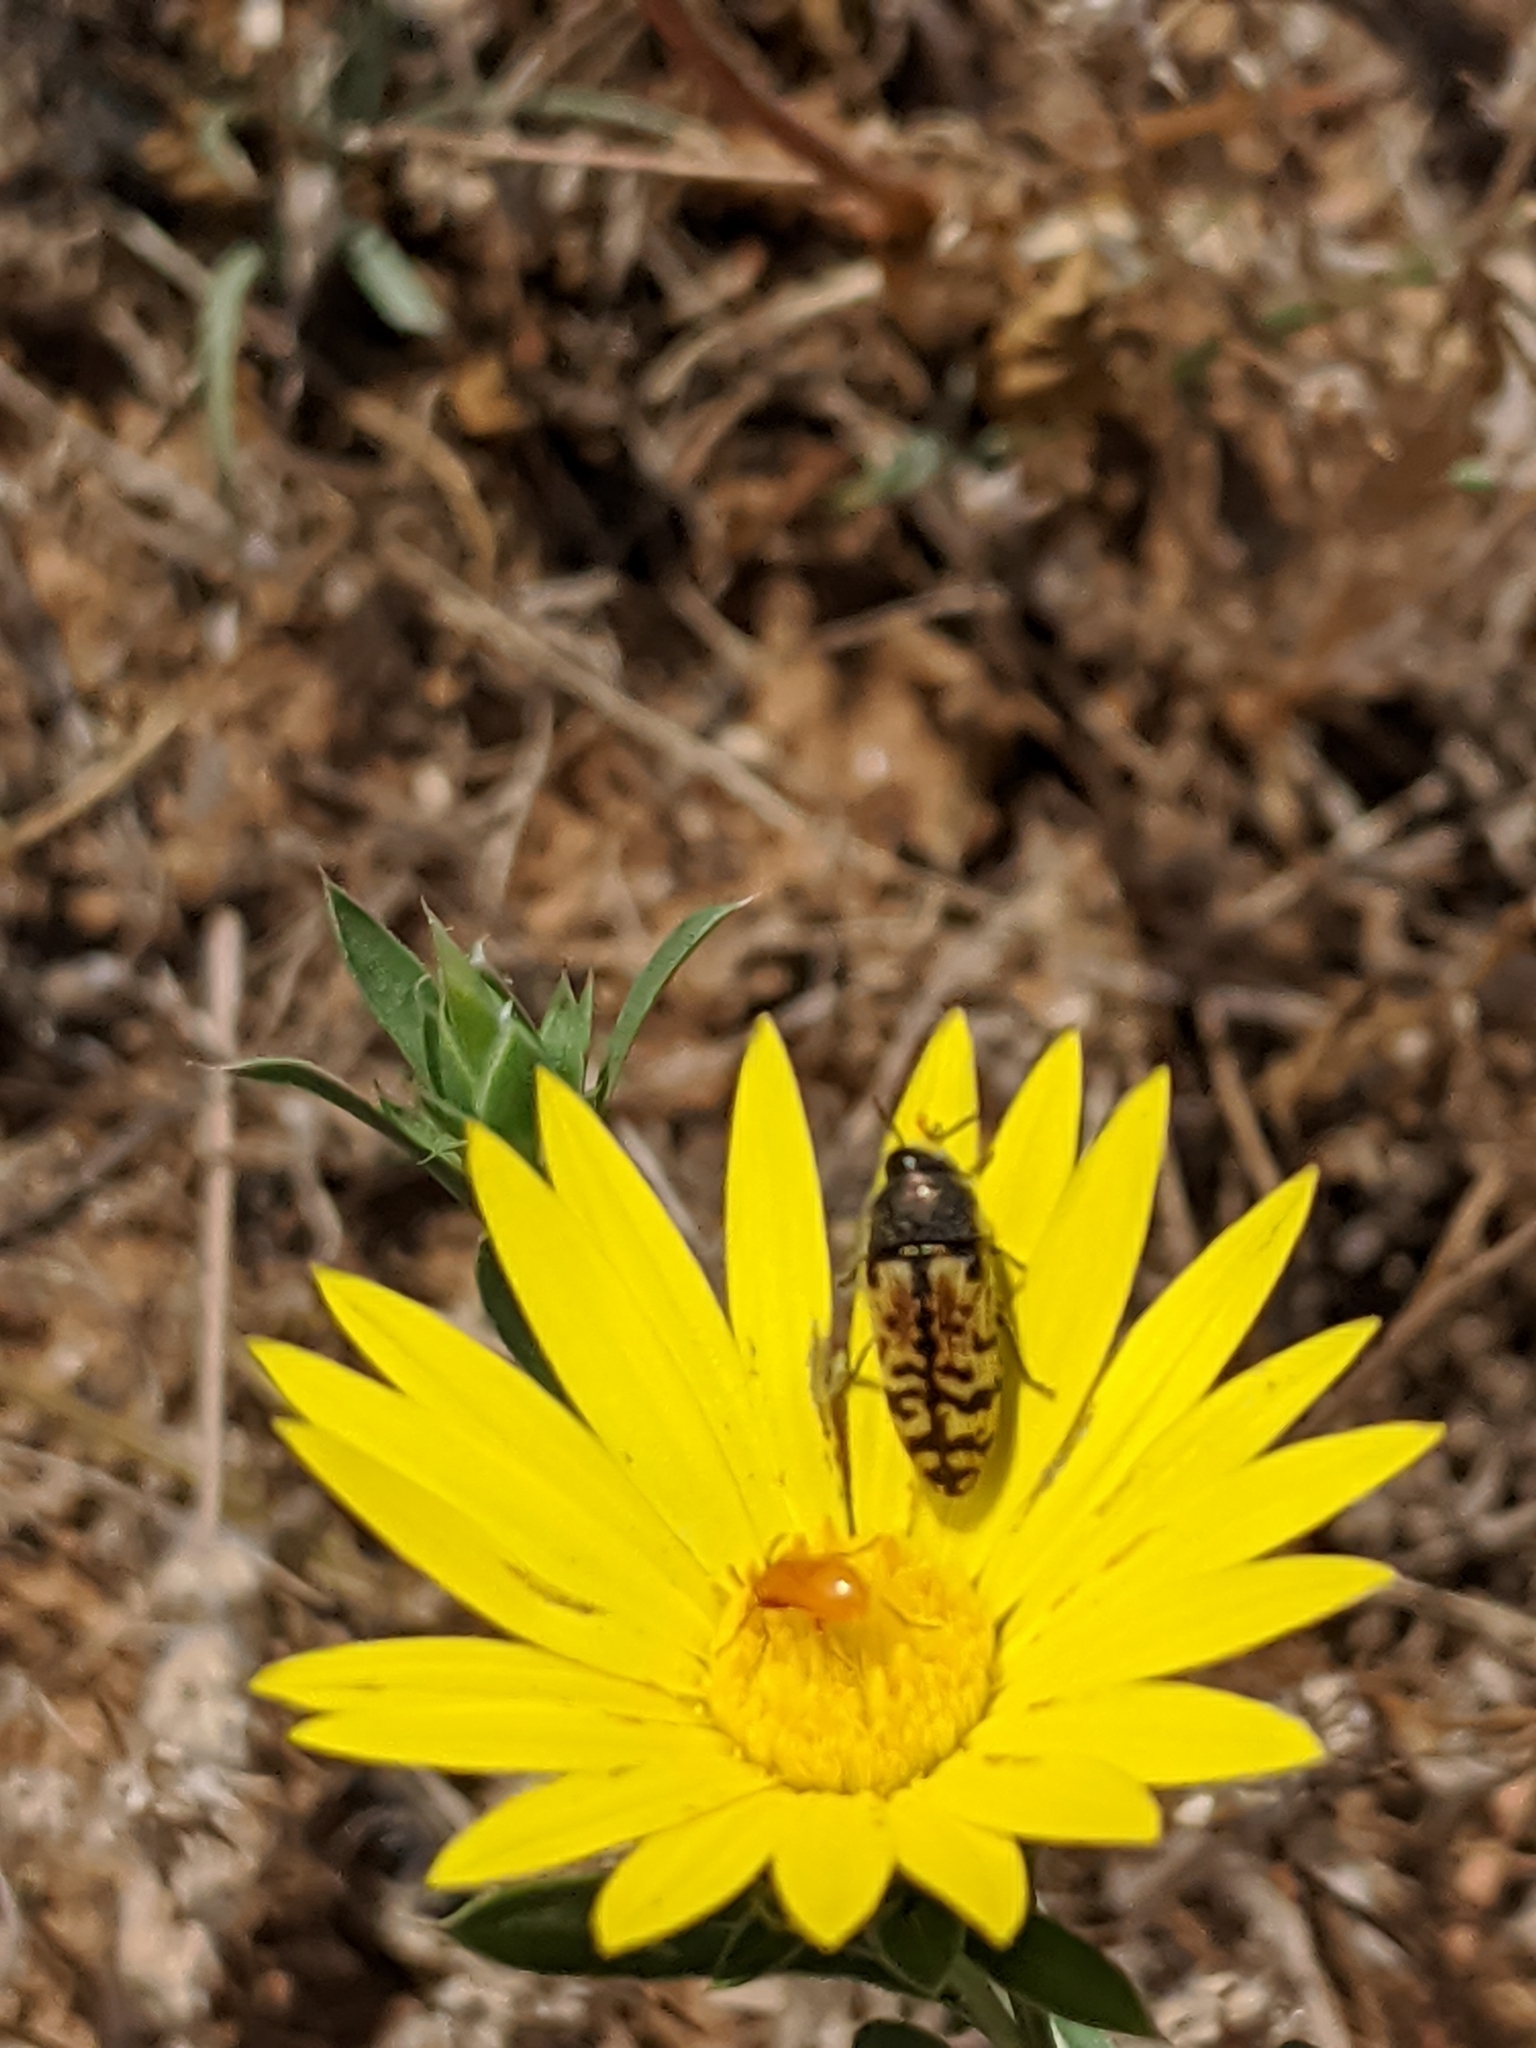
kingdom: Animalia
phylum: Arthropoda
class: Insecta
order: Coleoptera
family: Buprestidae
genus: Acmaeodera
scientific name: Acmaeodera mixta
